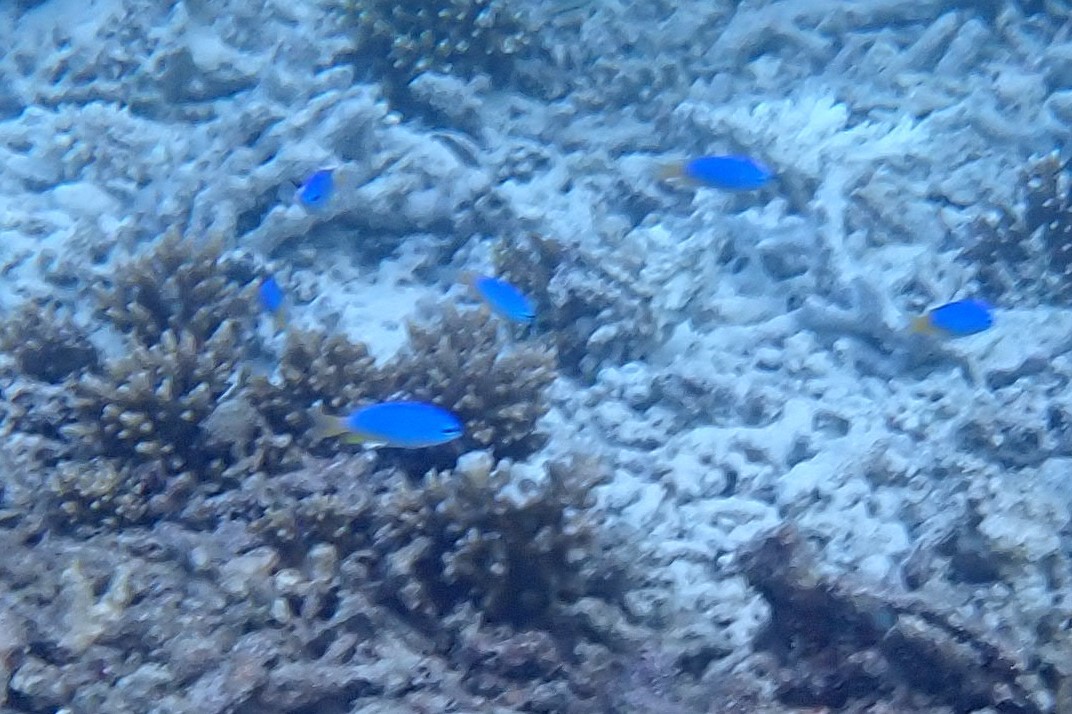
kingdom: Animalia
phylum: Chordata
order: Perciformes
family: Pomacentridae
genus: Pomacentrus
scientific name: Pomacentrus coelestis
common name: Neon damsel
